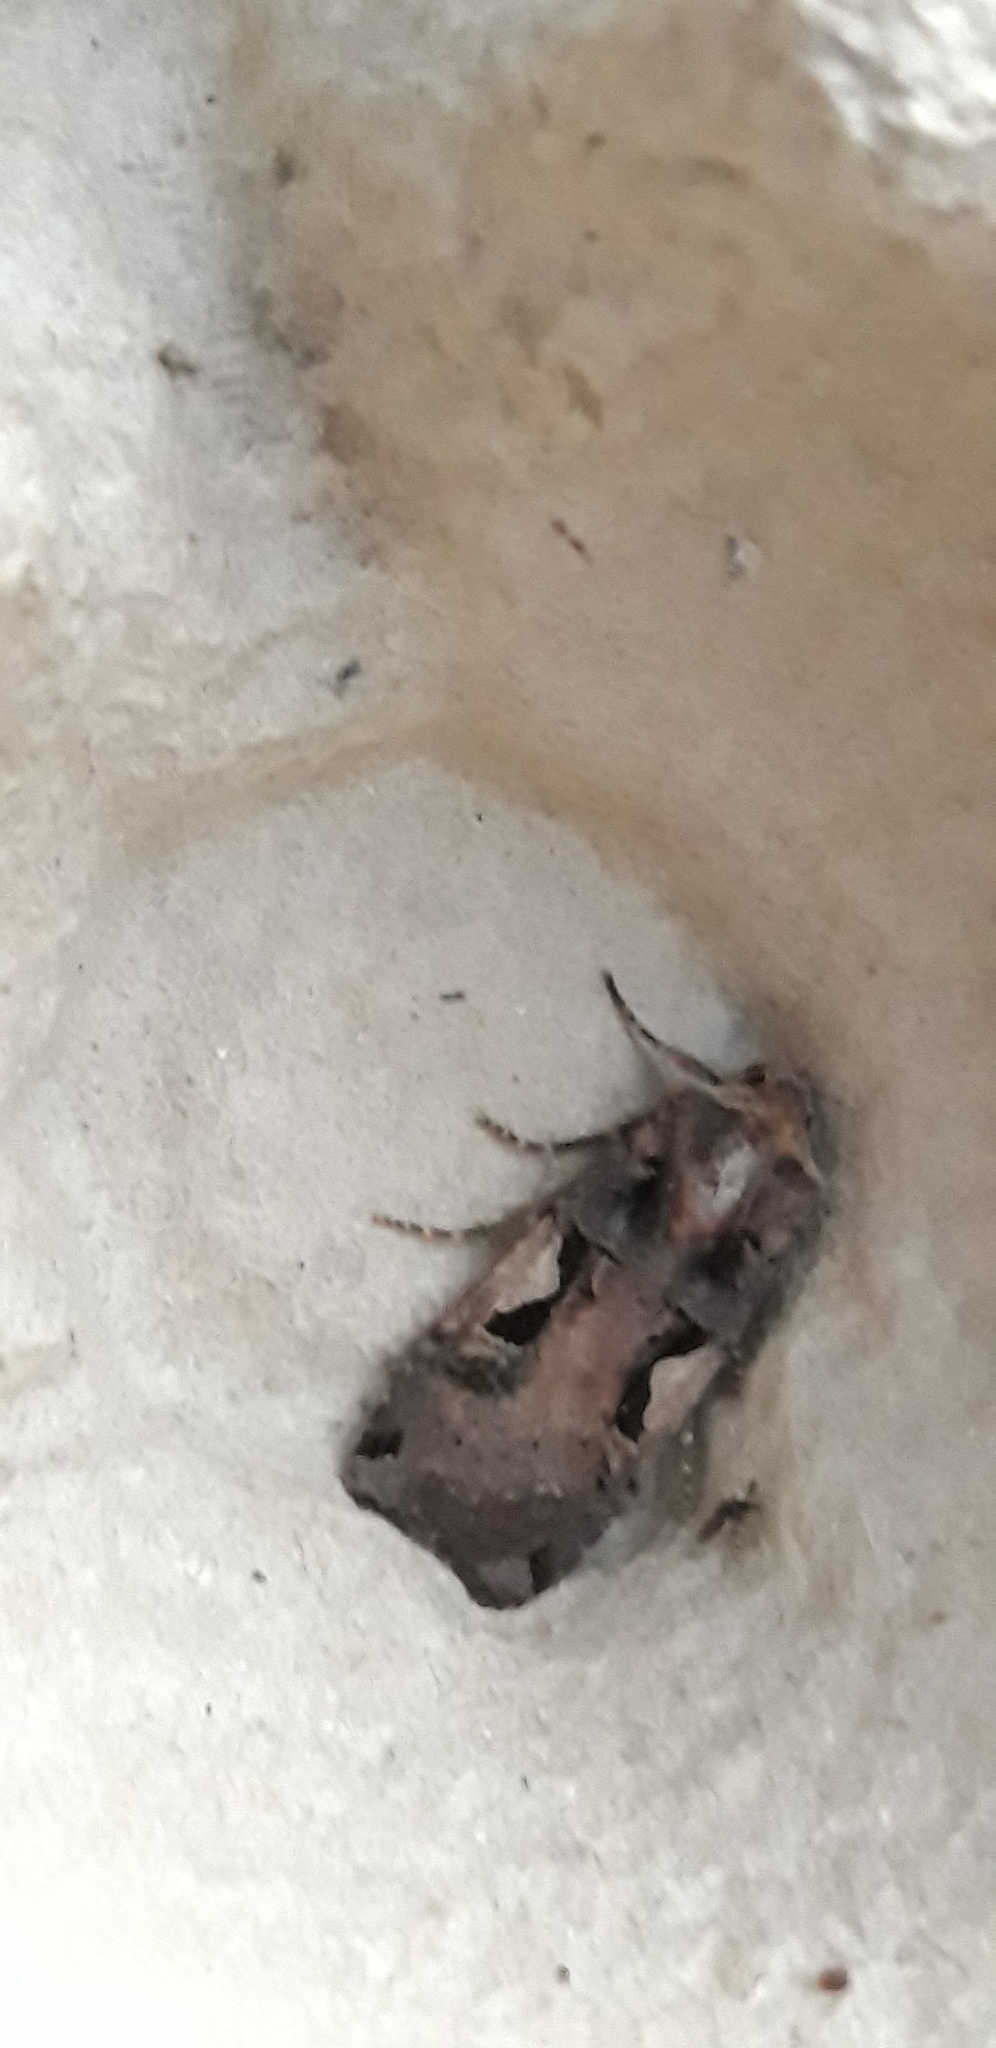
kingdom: Animalia
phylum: Arthropoda
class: Insecta
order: Lepidoptera
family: Noctuidae
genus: Xestia
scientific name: Xestia c-nigrum
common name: Setaceous hebrew character
